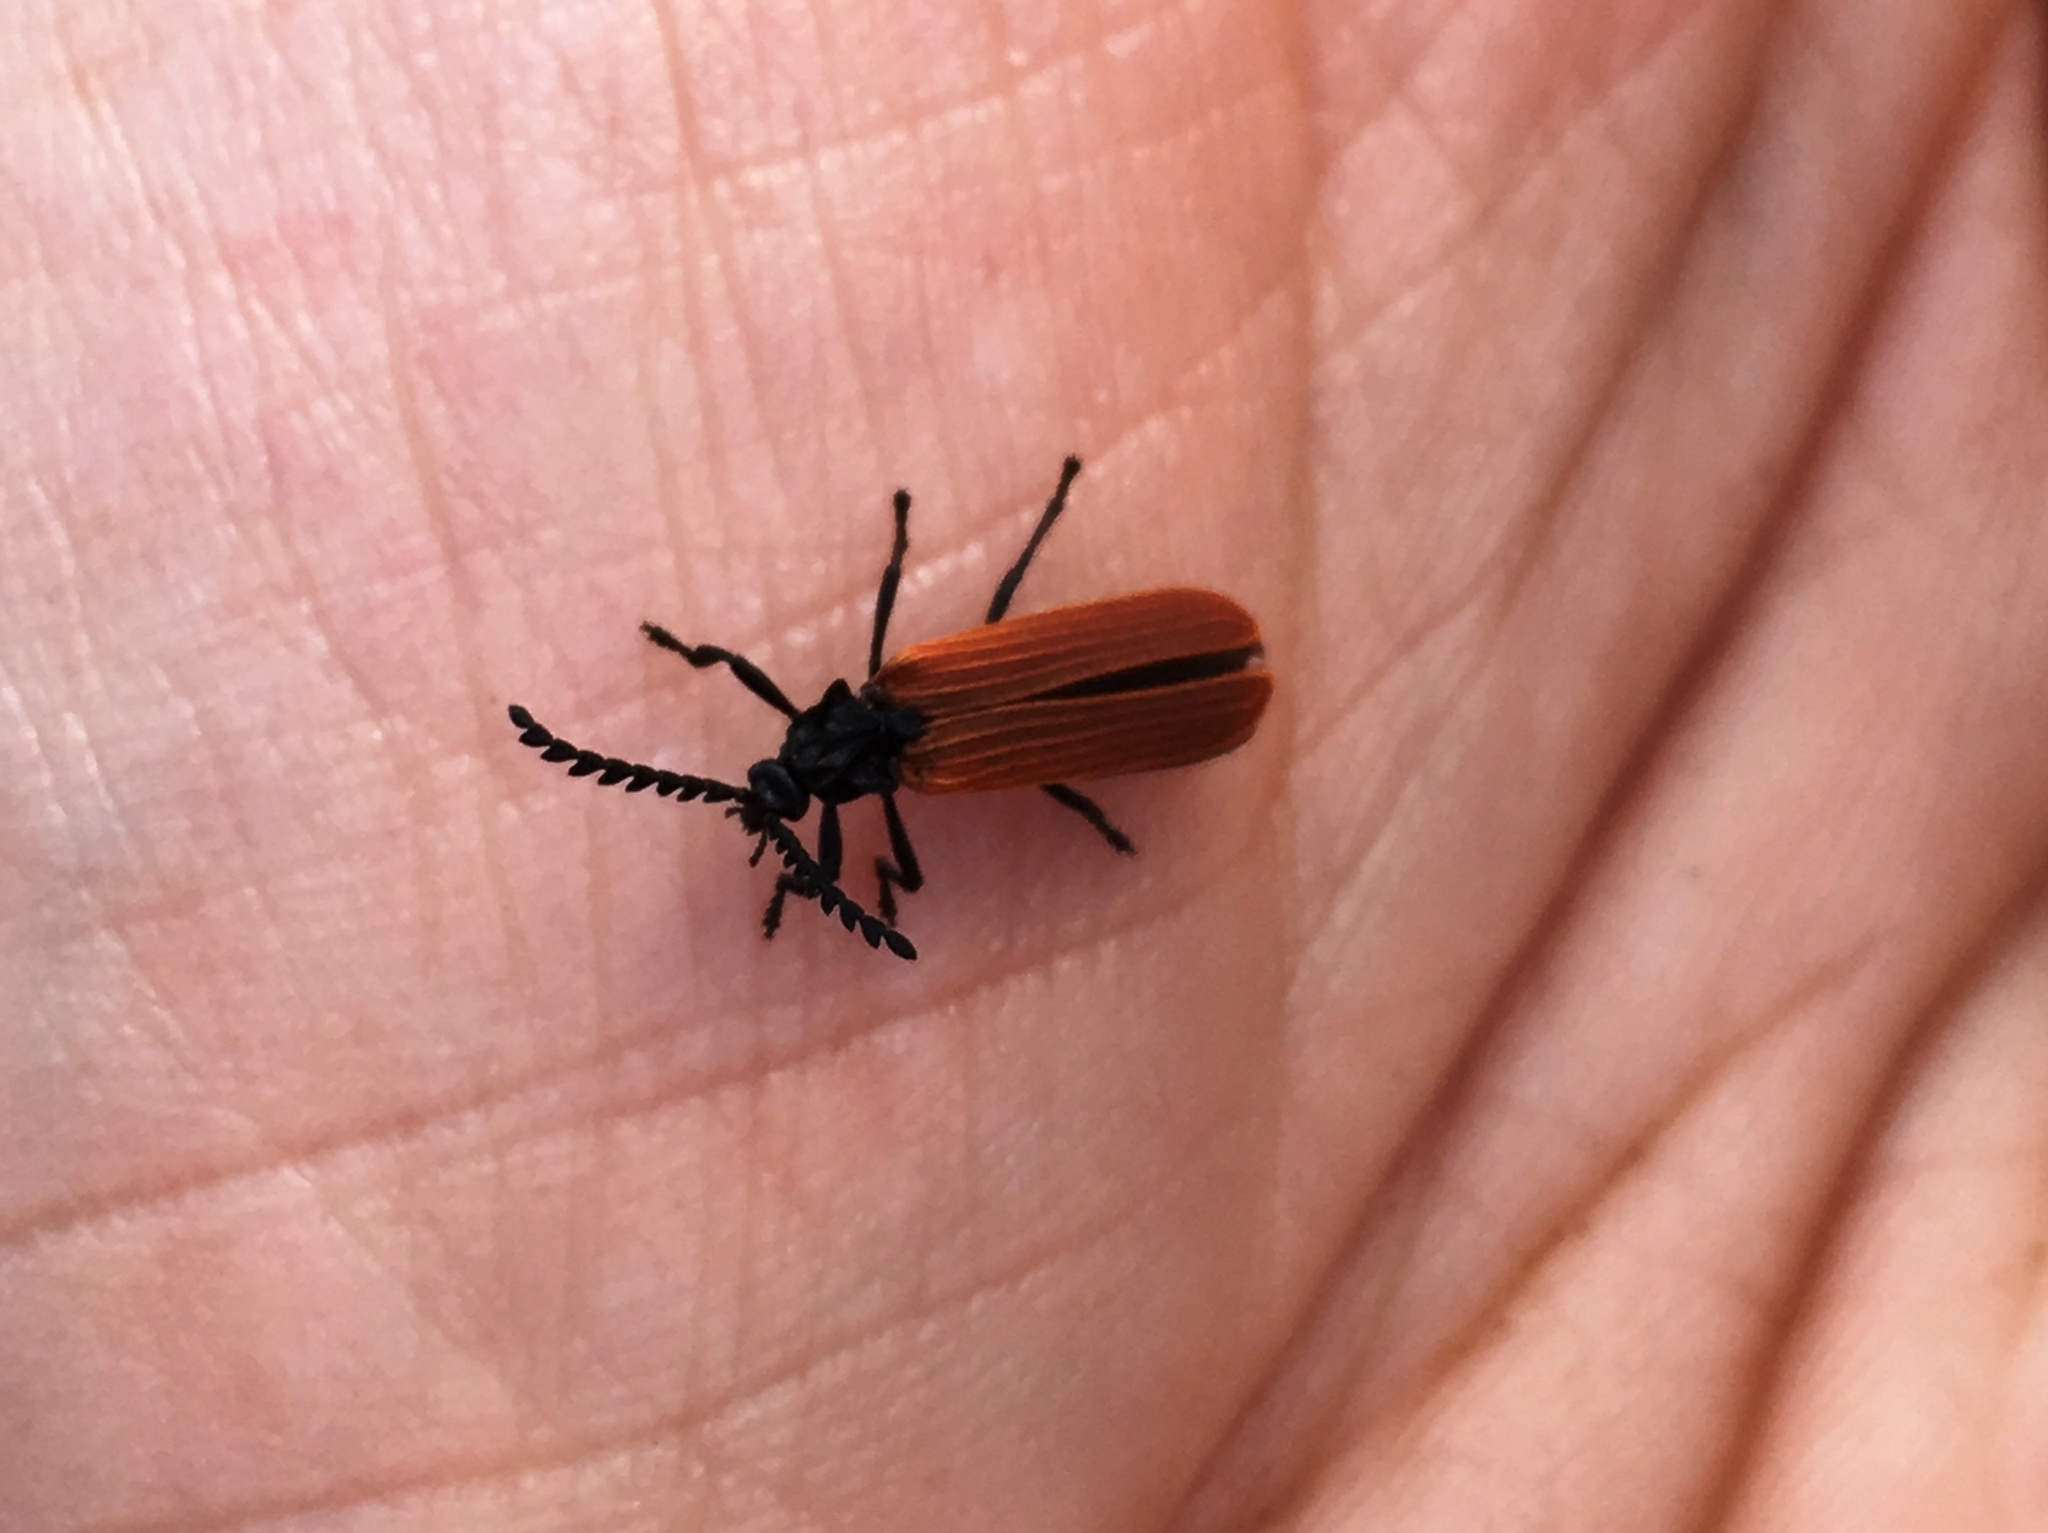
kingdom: Animalia
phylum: Arthropoda
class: Insecta
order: Coleoptera
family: Lycidae
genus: Porrostoma
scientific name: Porrostoma rufipenne
